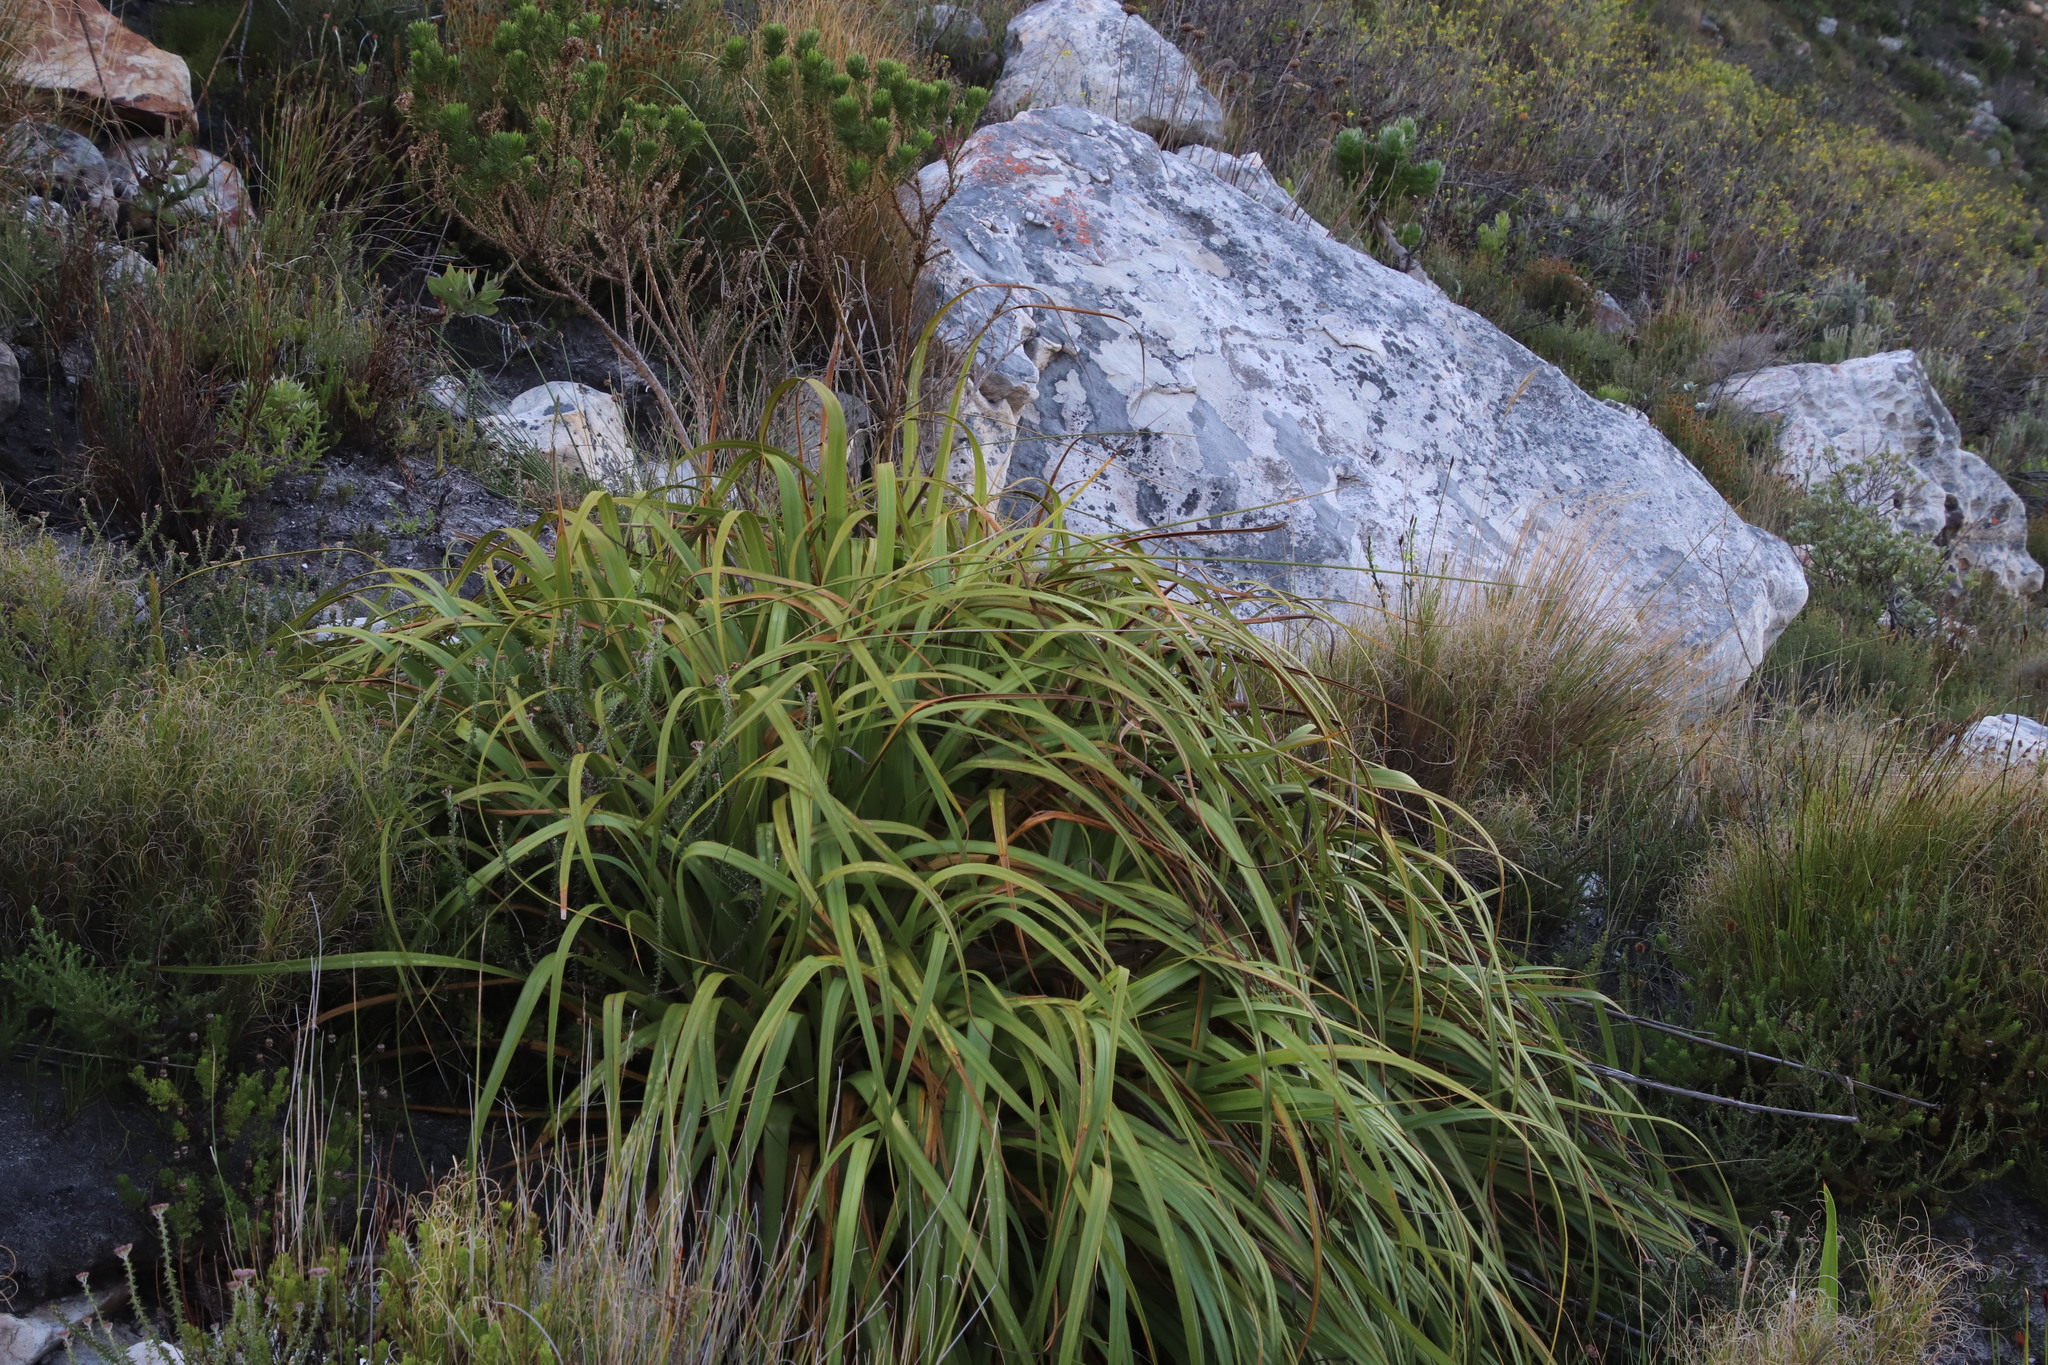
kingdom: Plantae
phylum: Tracheophyta
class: Liliopsida
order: Poales
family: Cyperaceae
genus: Tetraria
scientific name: Tetraria thermalis
